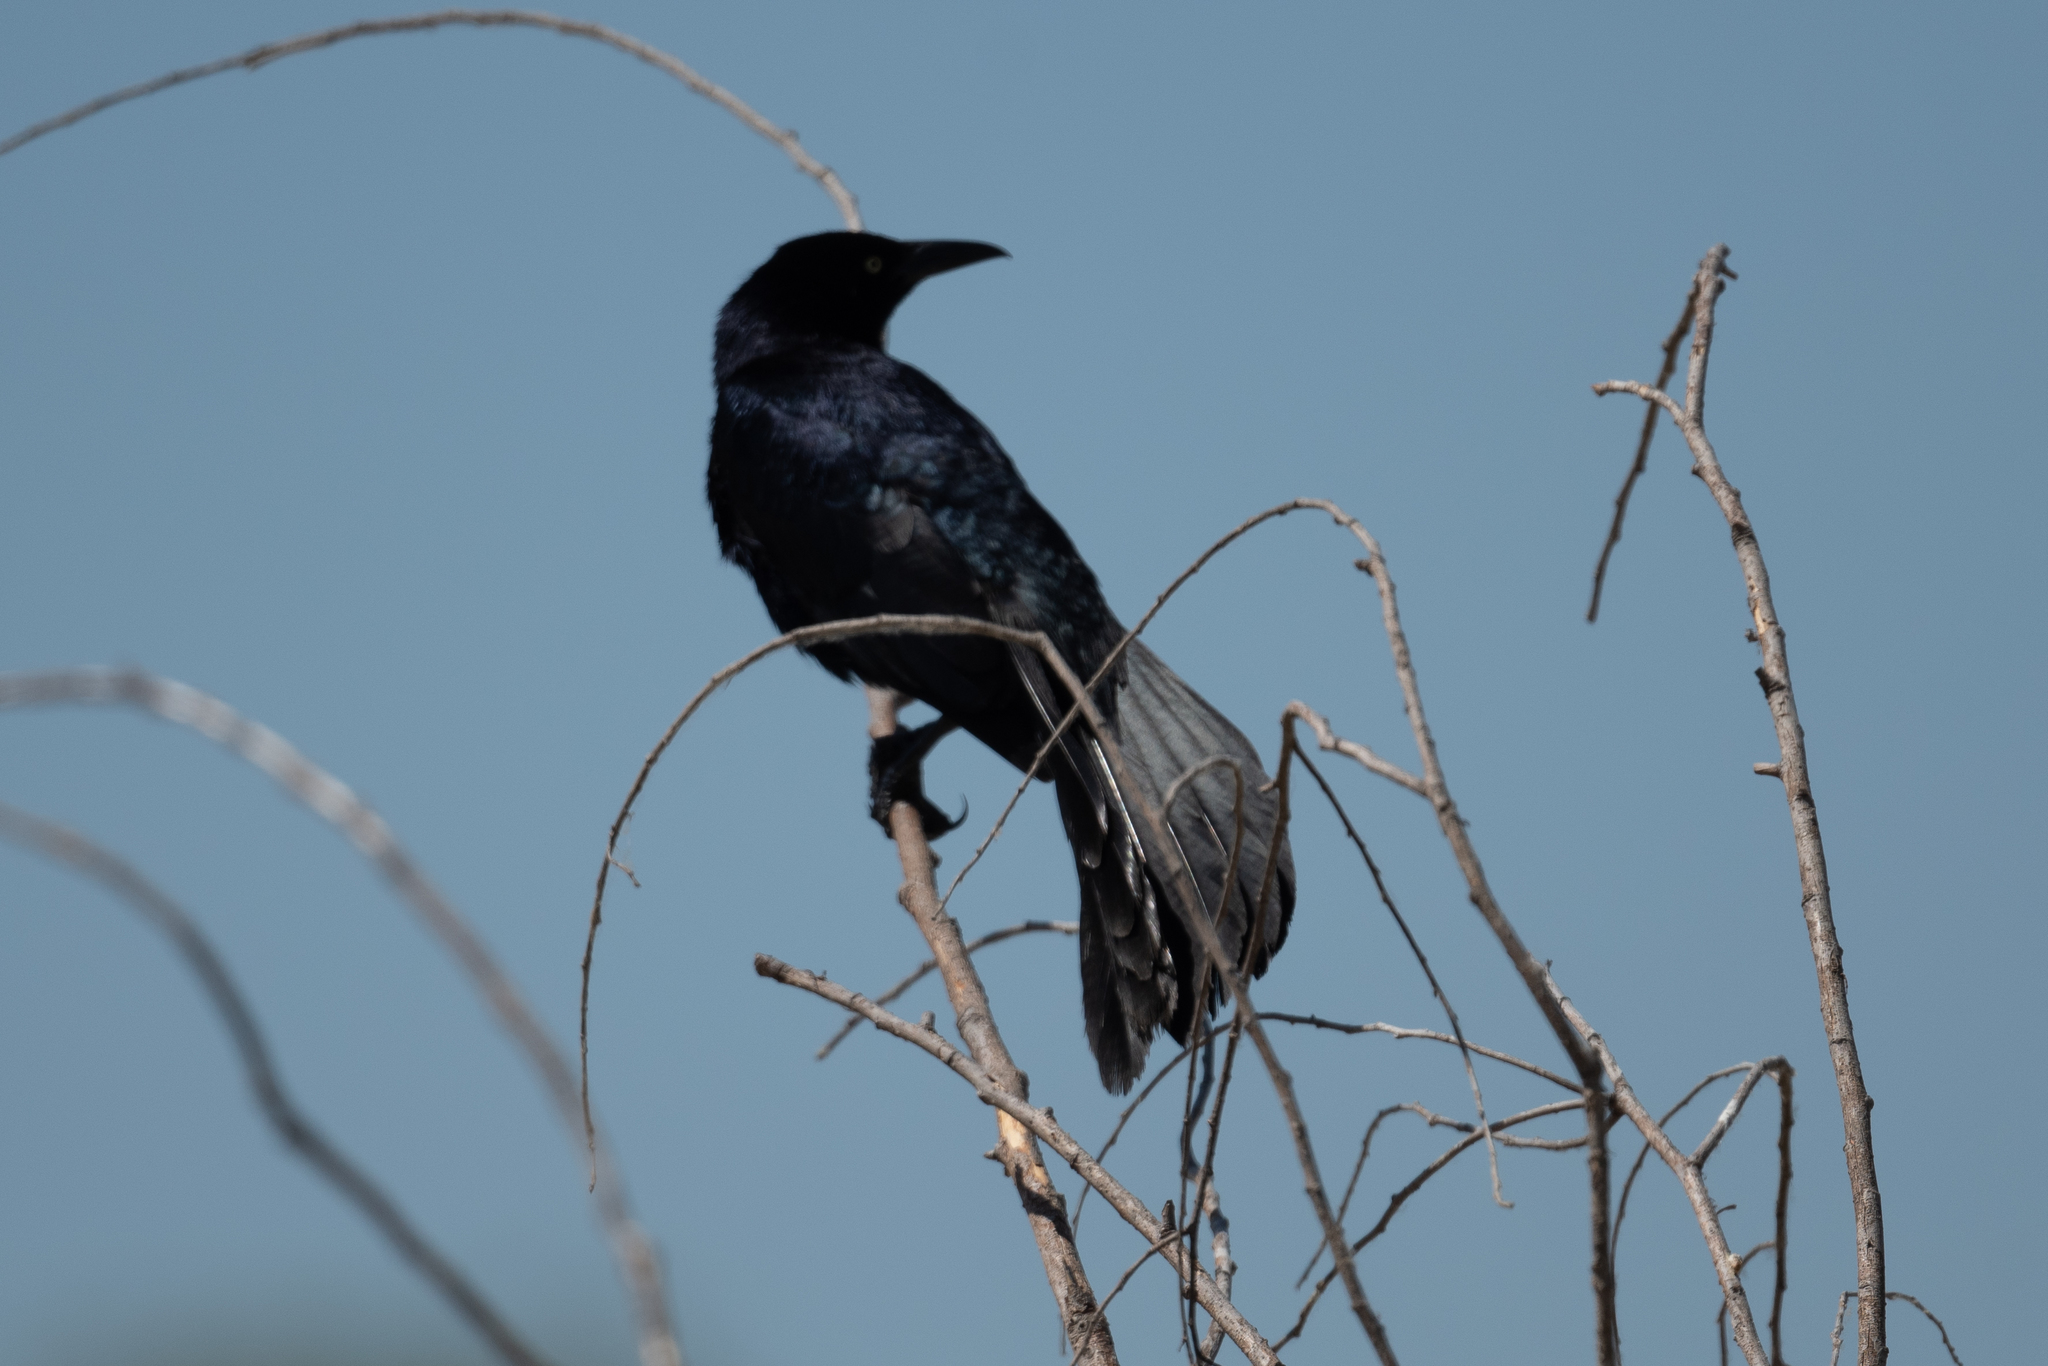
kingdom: Animalia
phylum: Chordata
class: Aves
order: Passeriformes
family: Icteridae
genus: Quiscalus
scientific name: Quiscalus mexicanus
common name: Great-tailed grackle
